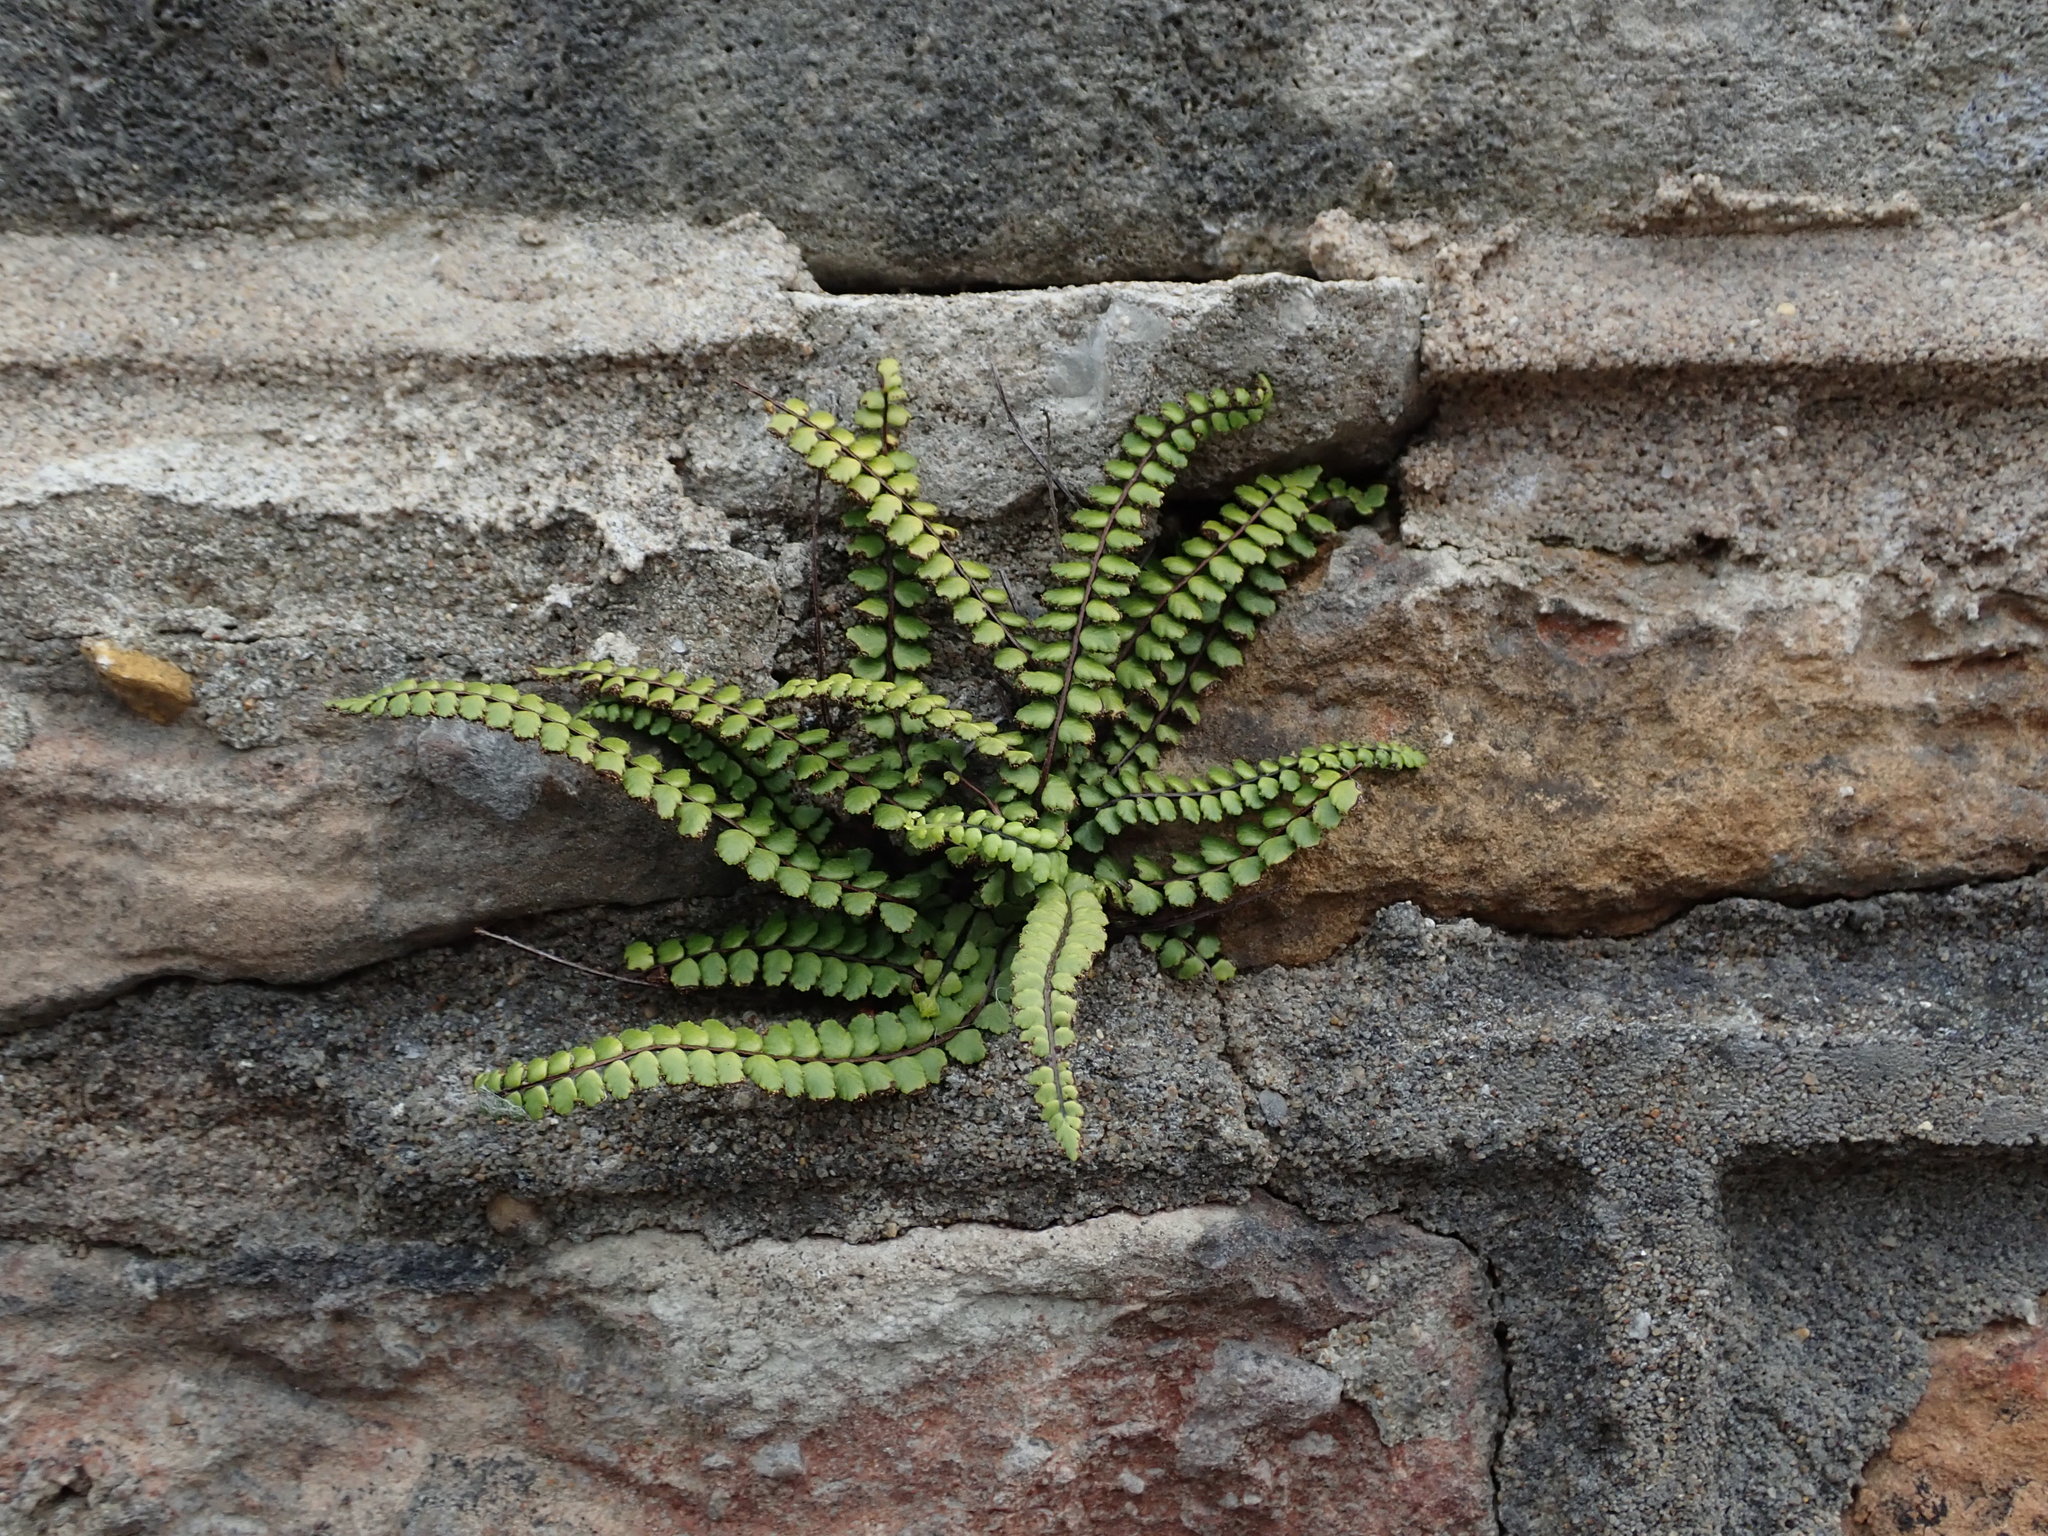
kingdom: Plantae
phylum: Tracheophyta
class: Polypodiopsida
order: Polypodiales
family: Aspleniaceae
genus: Asplenium
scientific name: Asplenium trichomanes
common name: Maidenhair spleenwort
